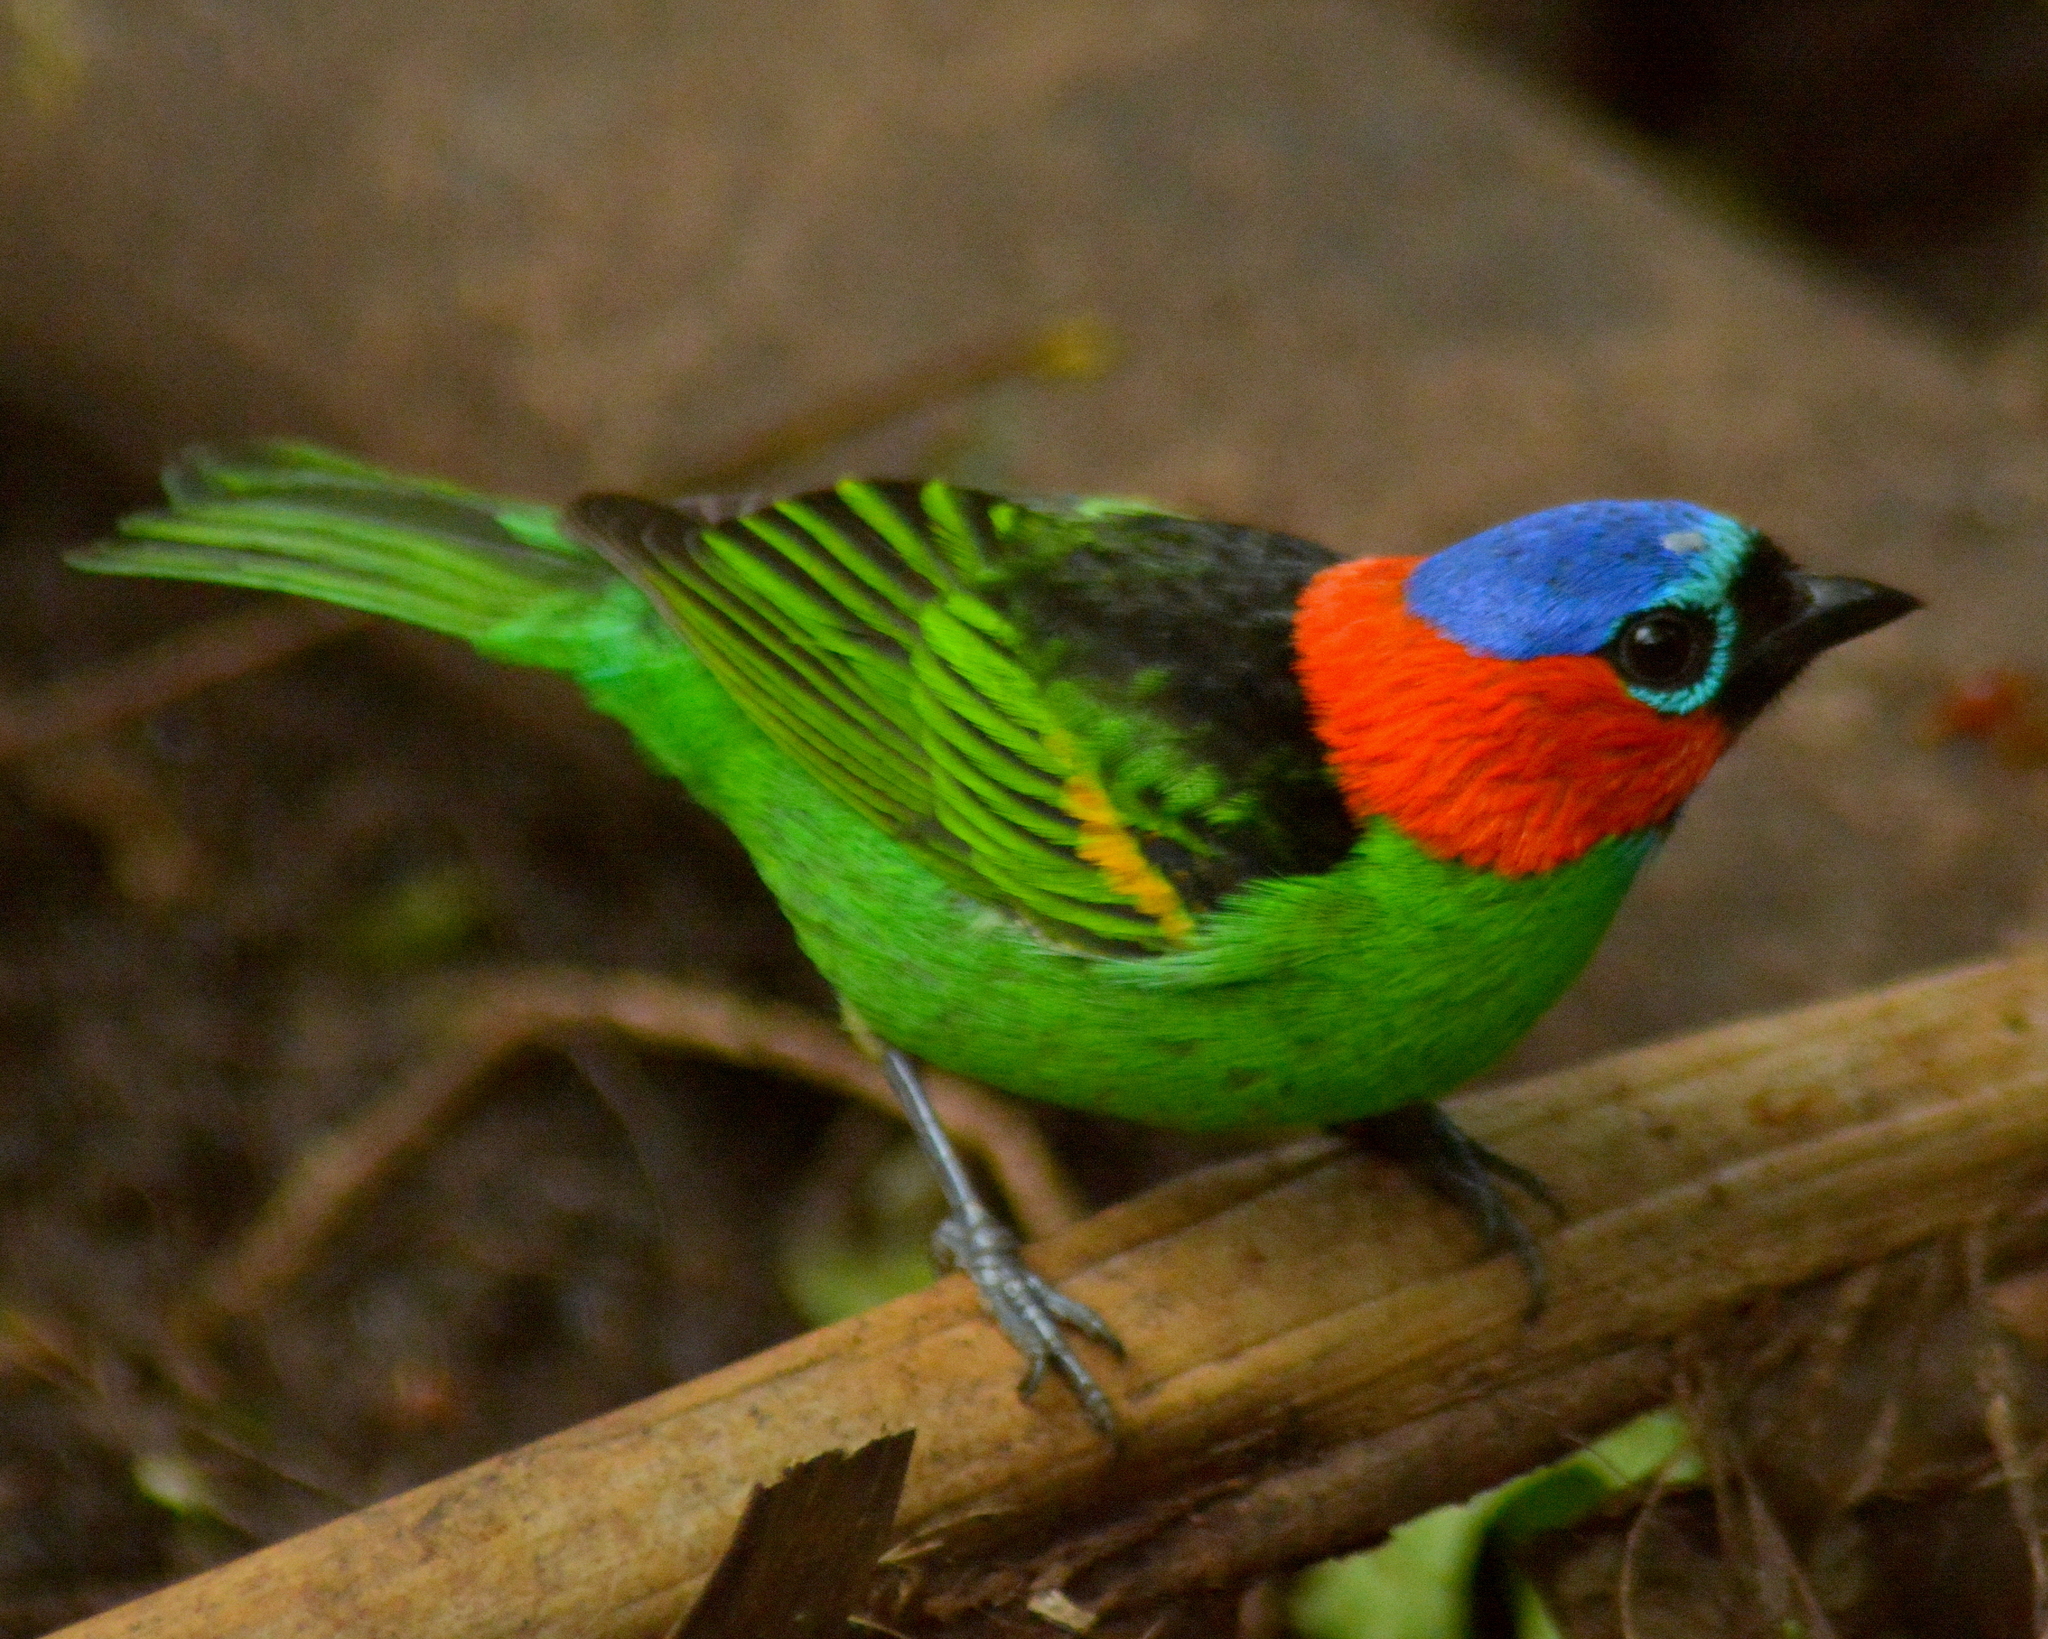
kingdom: Animalia
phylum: Chordata
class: Aves
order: Passeriformes
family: Thraupidae
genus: Tangara
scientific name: Tangara cyanocephala
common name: Red-necked tanager
